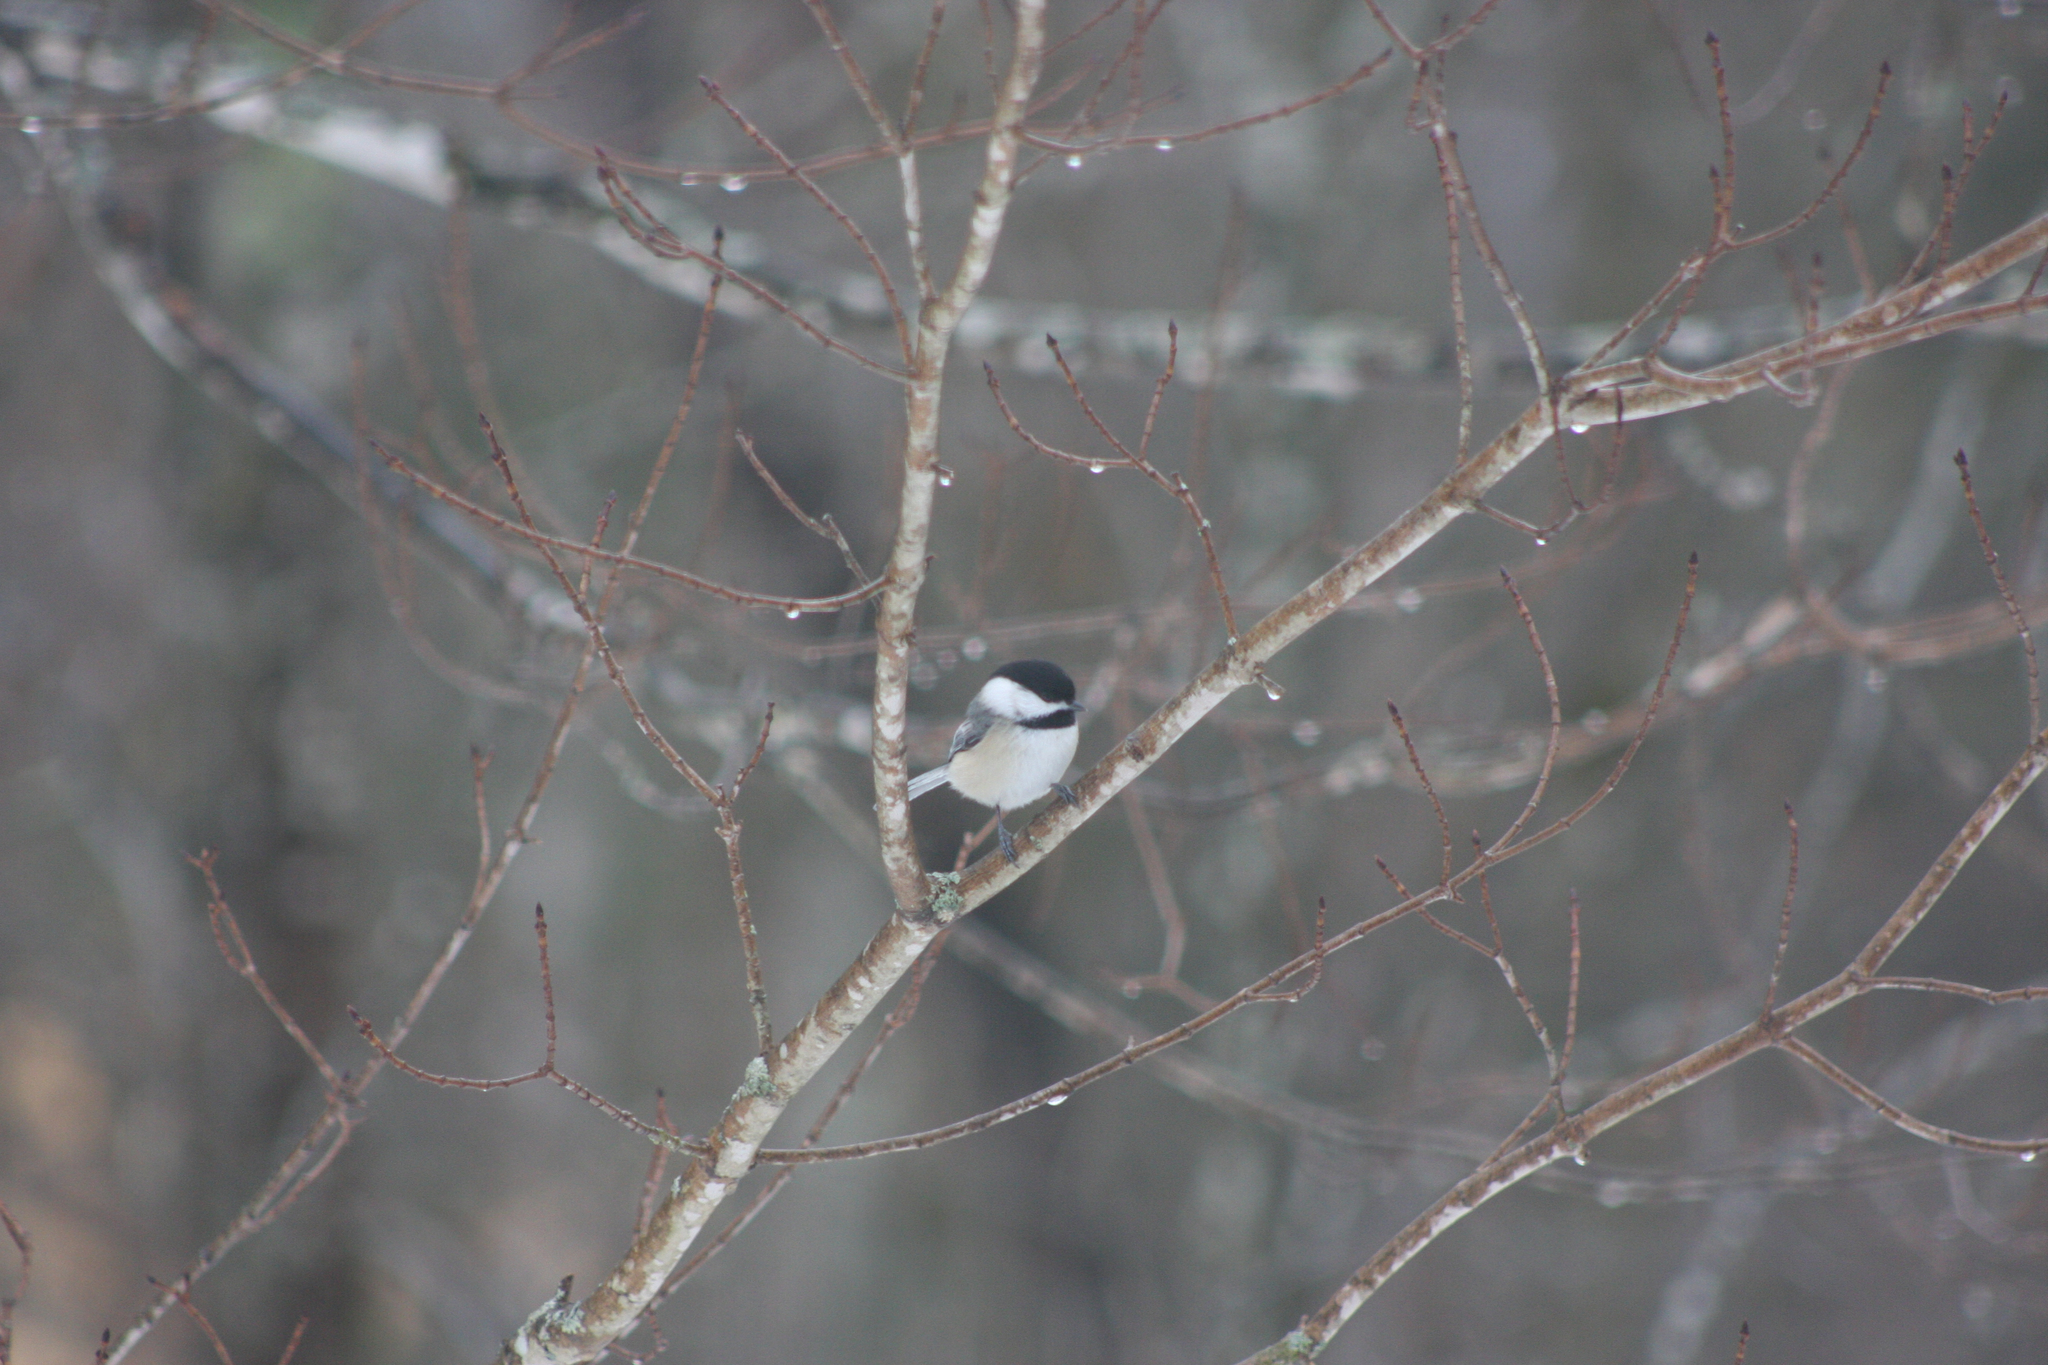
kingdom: Animalia
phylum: Chordata
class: Aves
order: Passeriformes
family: Paridae
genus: Poecile
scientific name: Poecile atricapillus
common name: Black-capped chickadee
